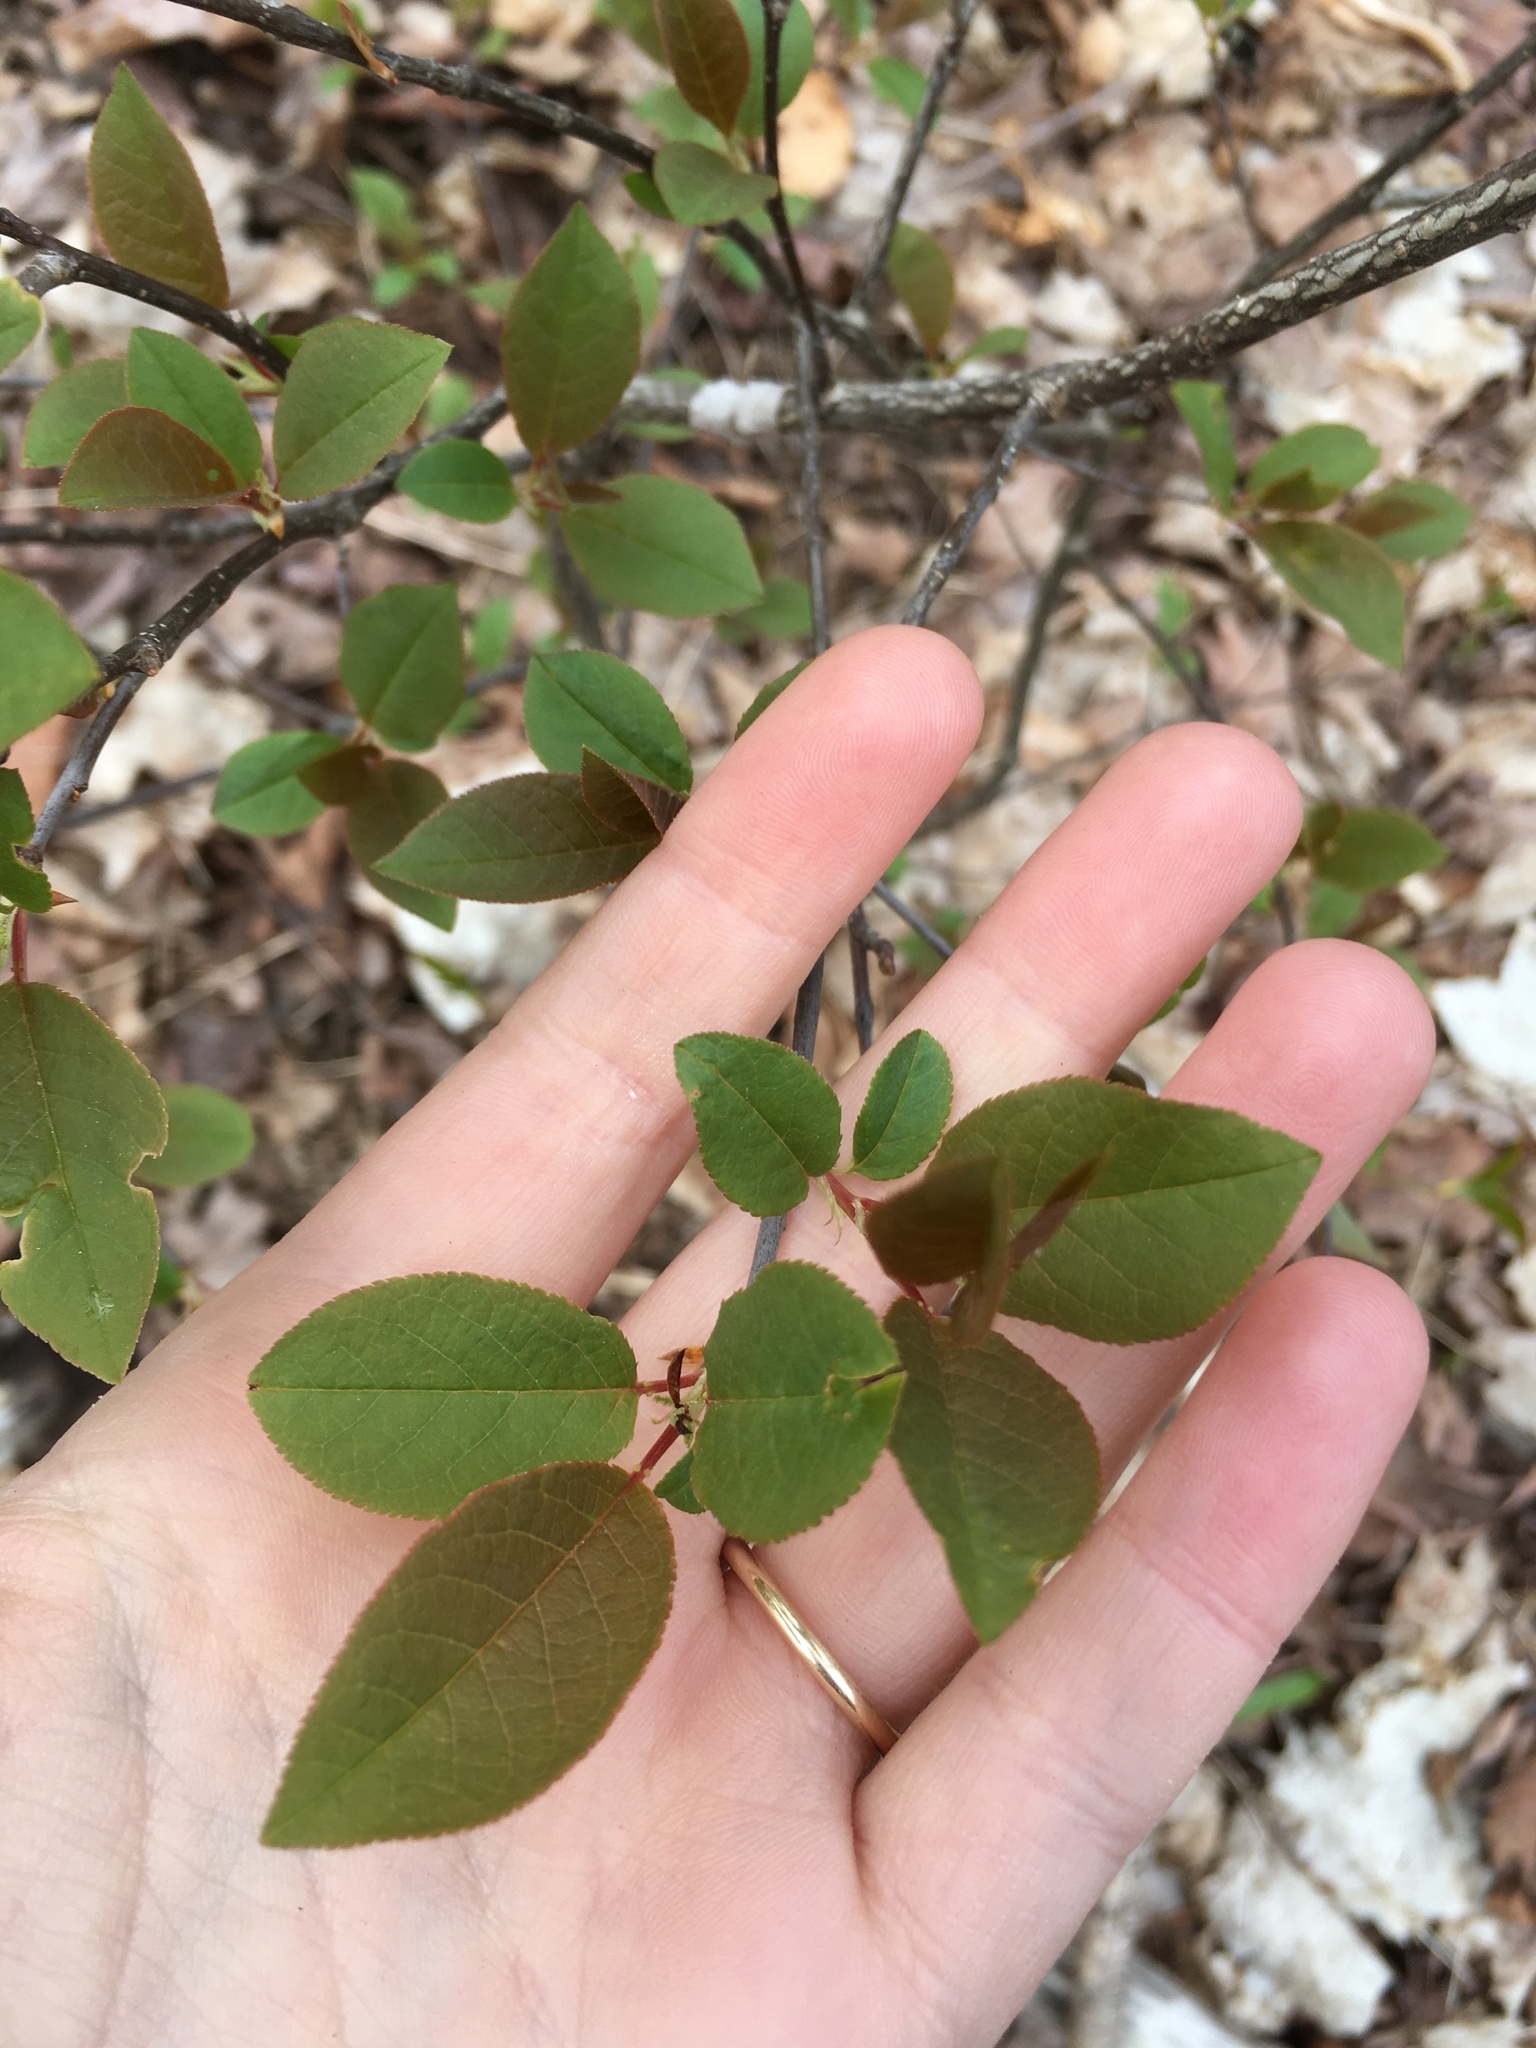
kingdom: Plantae
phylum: Tracheophyta
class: Magnoliopsida
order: Rosales
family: Rosaceae
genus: Prunus
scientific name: Prunus virginiana
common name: Chokecherry
